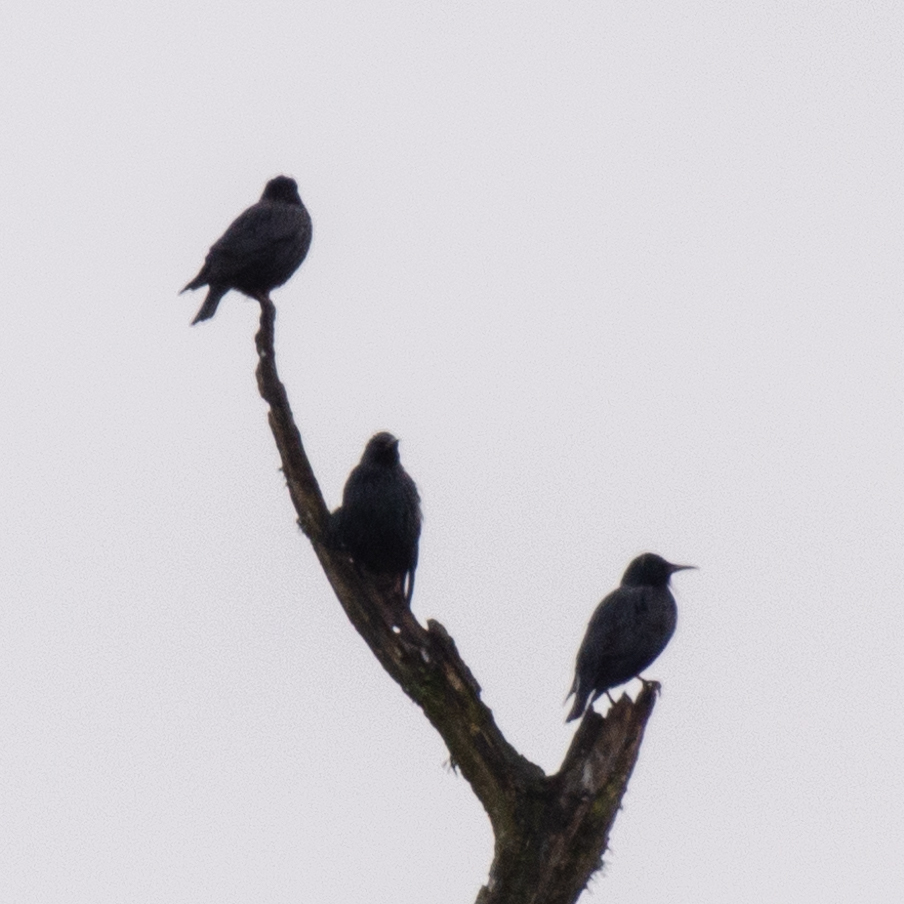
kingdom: Animalia
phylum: Chordata
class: Aves
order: Passeriformes
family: Sturnidae
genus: Sturnus
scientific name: Sturnus unicolor
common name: Spotless starling
